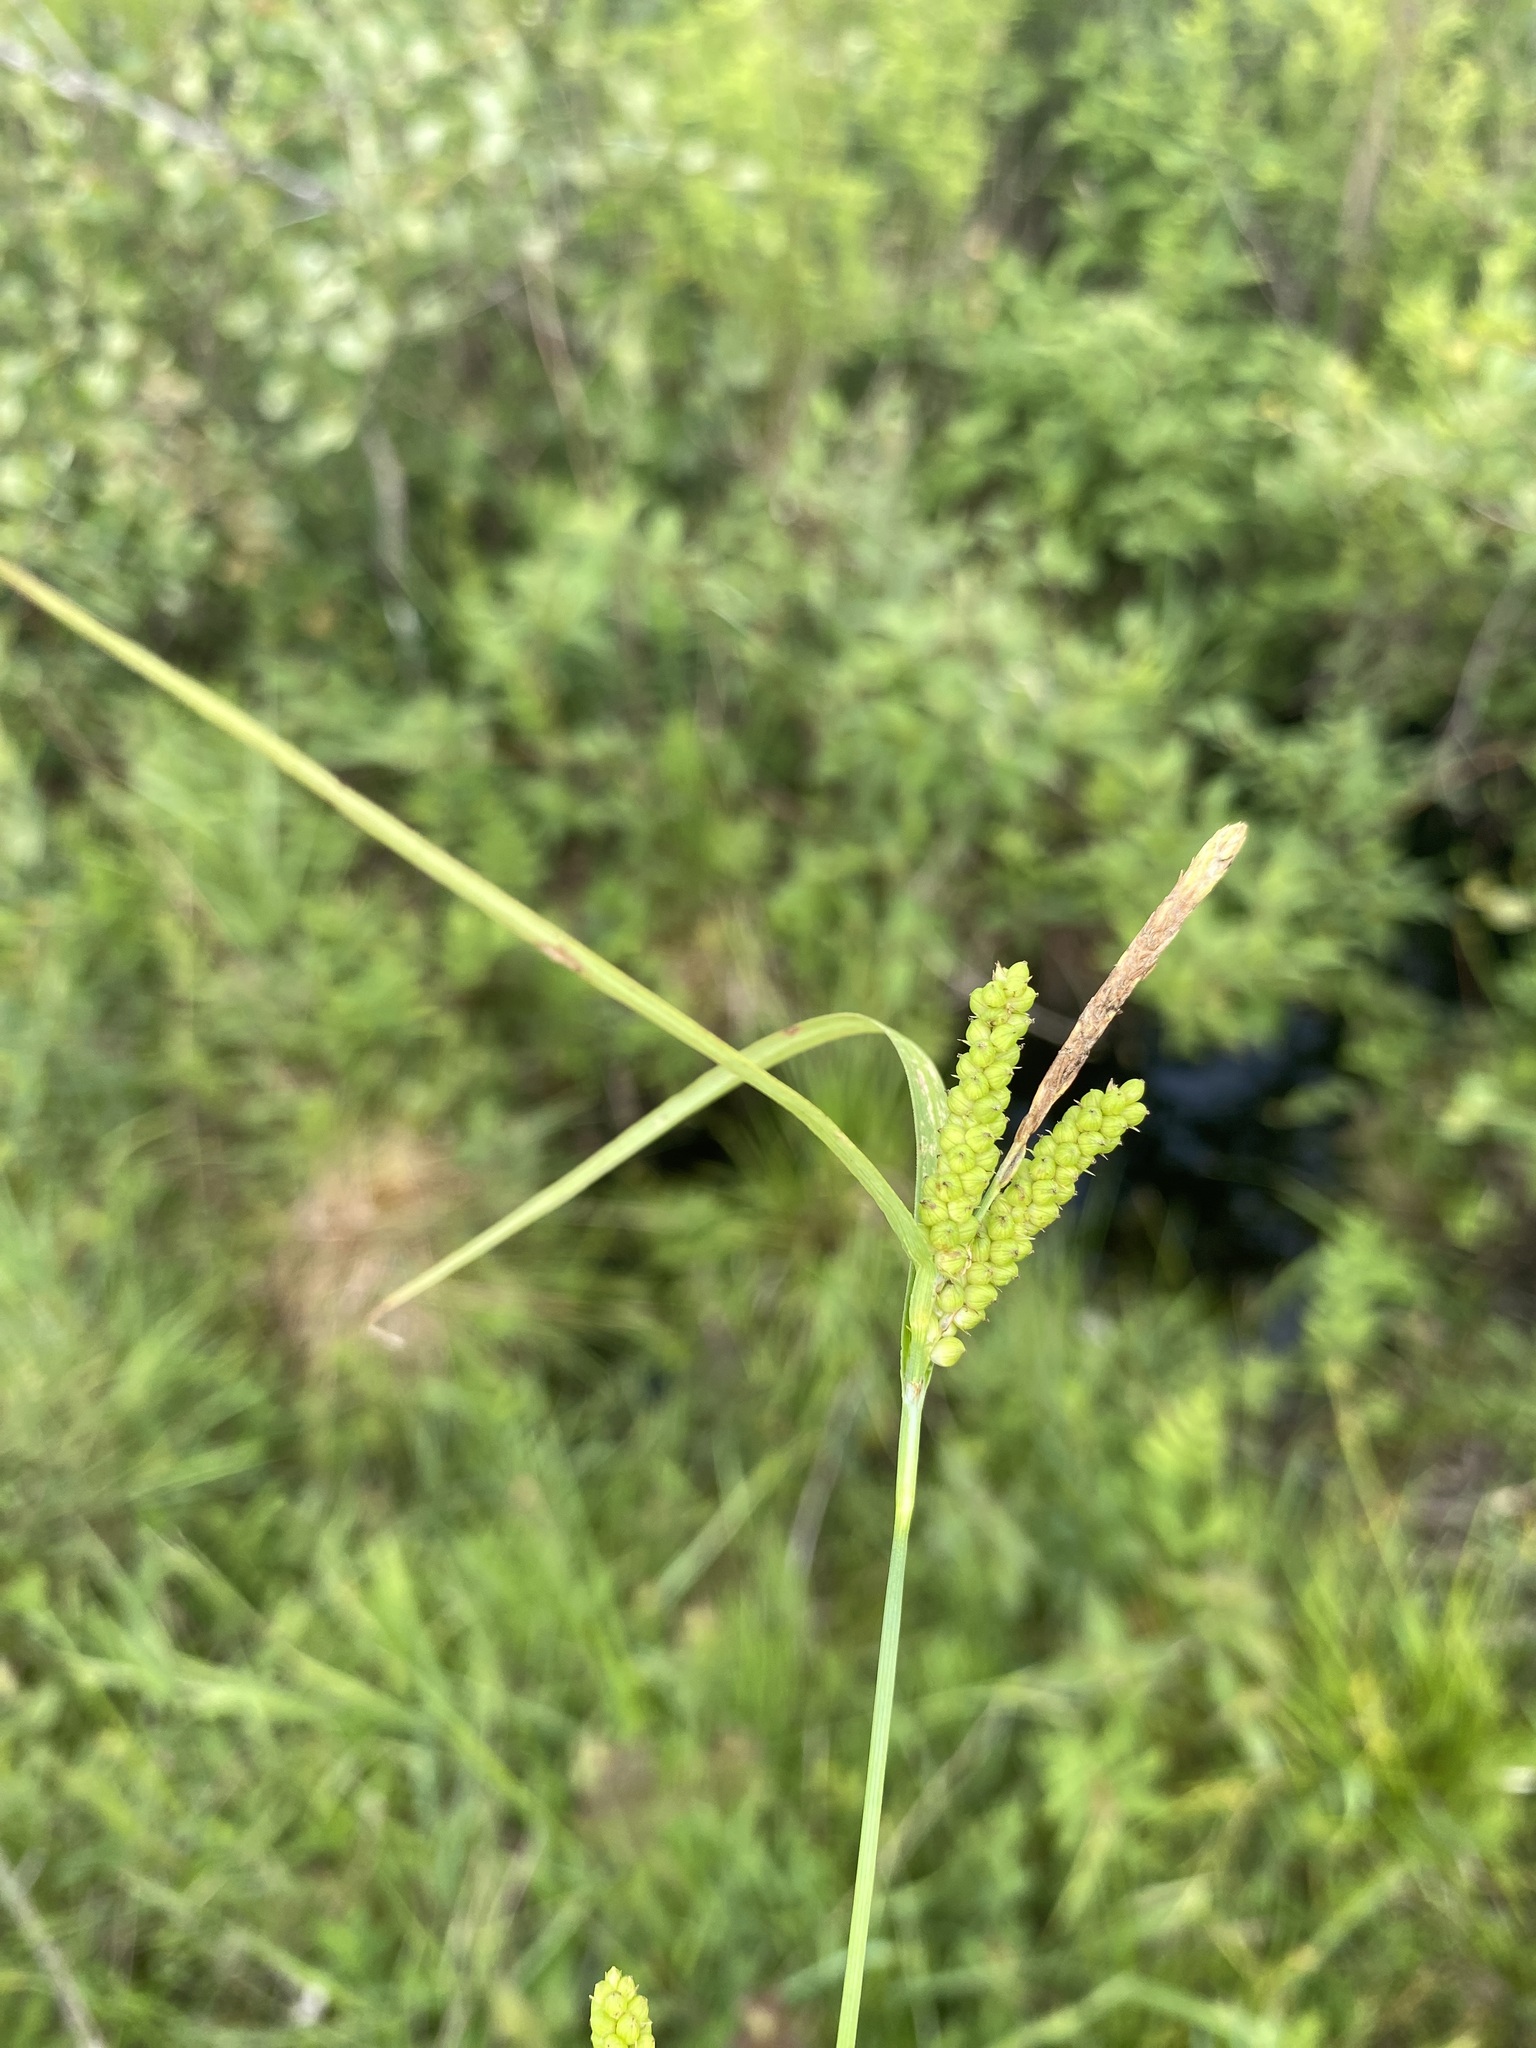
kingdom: Plantae
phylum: Tracheophyta
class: Liliopsida
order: Poales
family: Cyperaceae
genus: Carex
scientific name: Carex granularis
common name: Granular sedge
